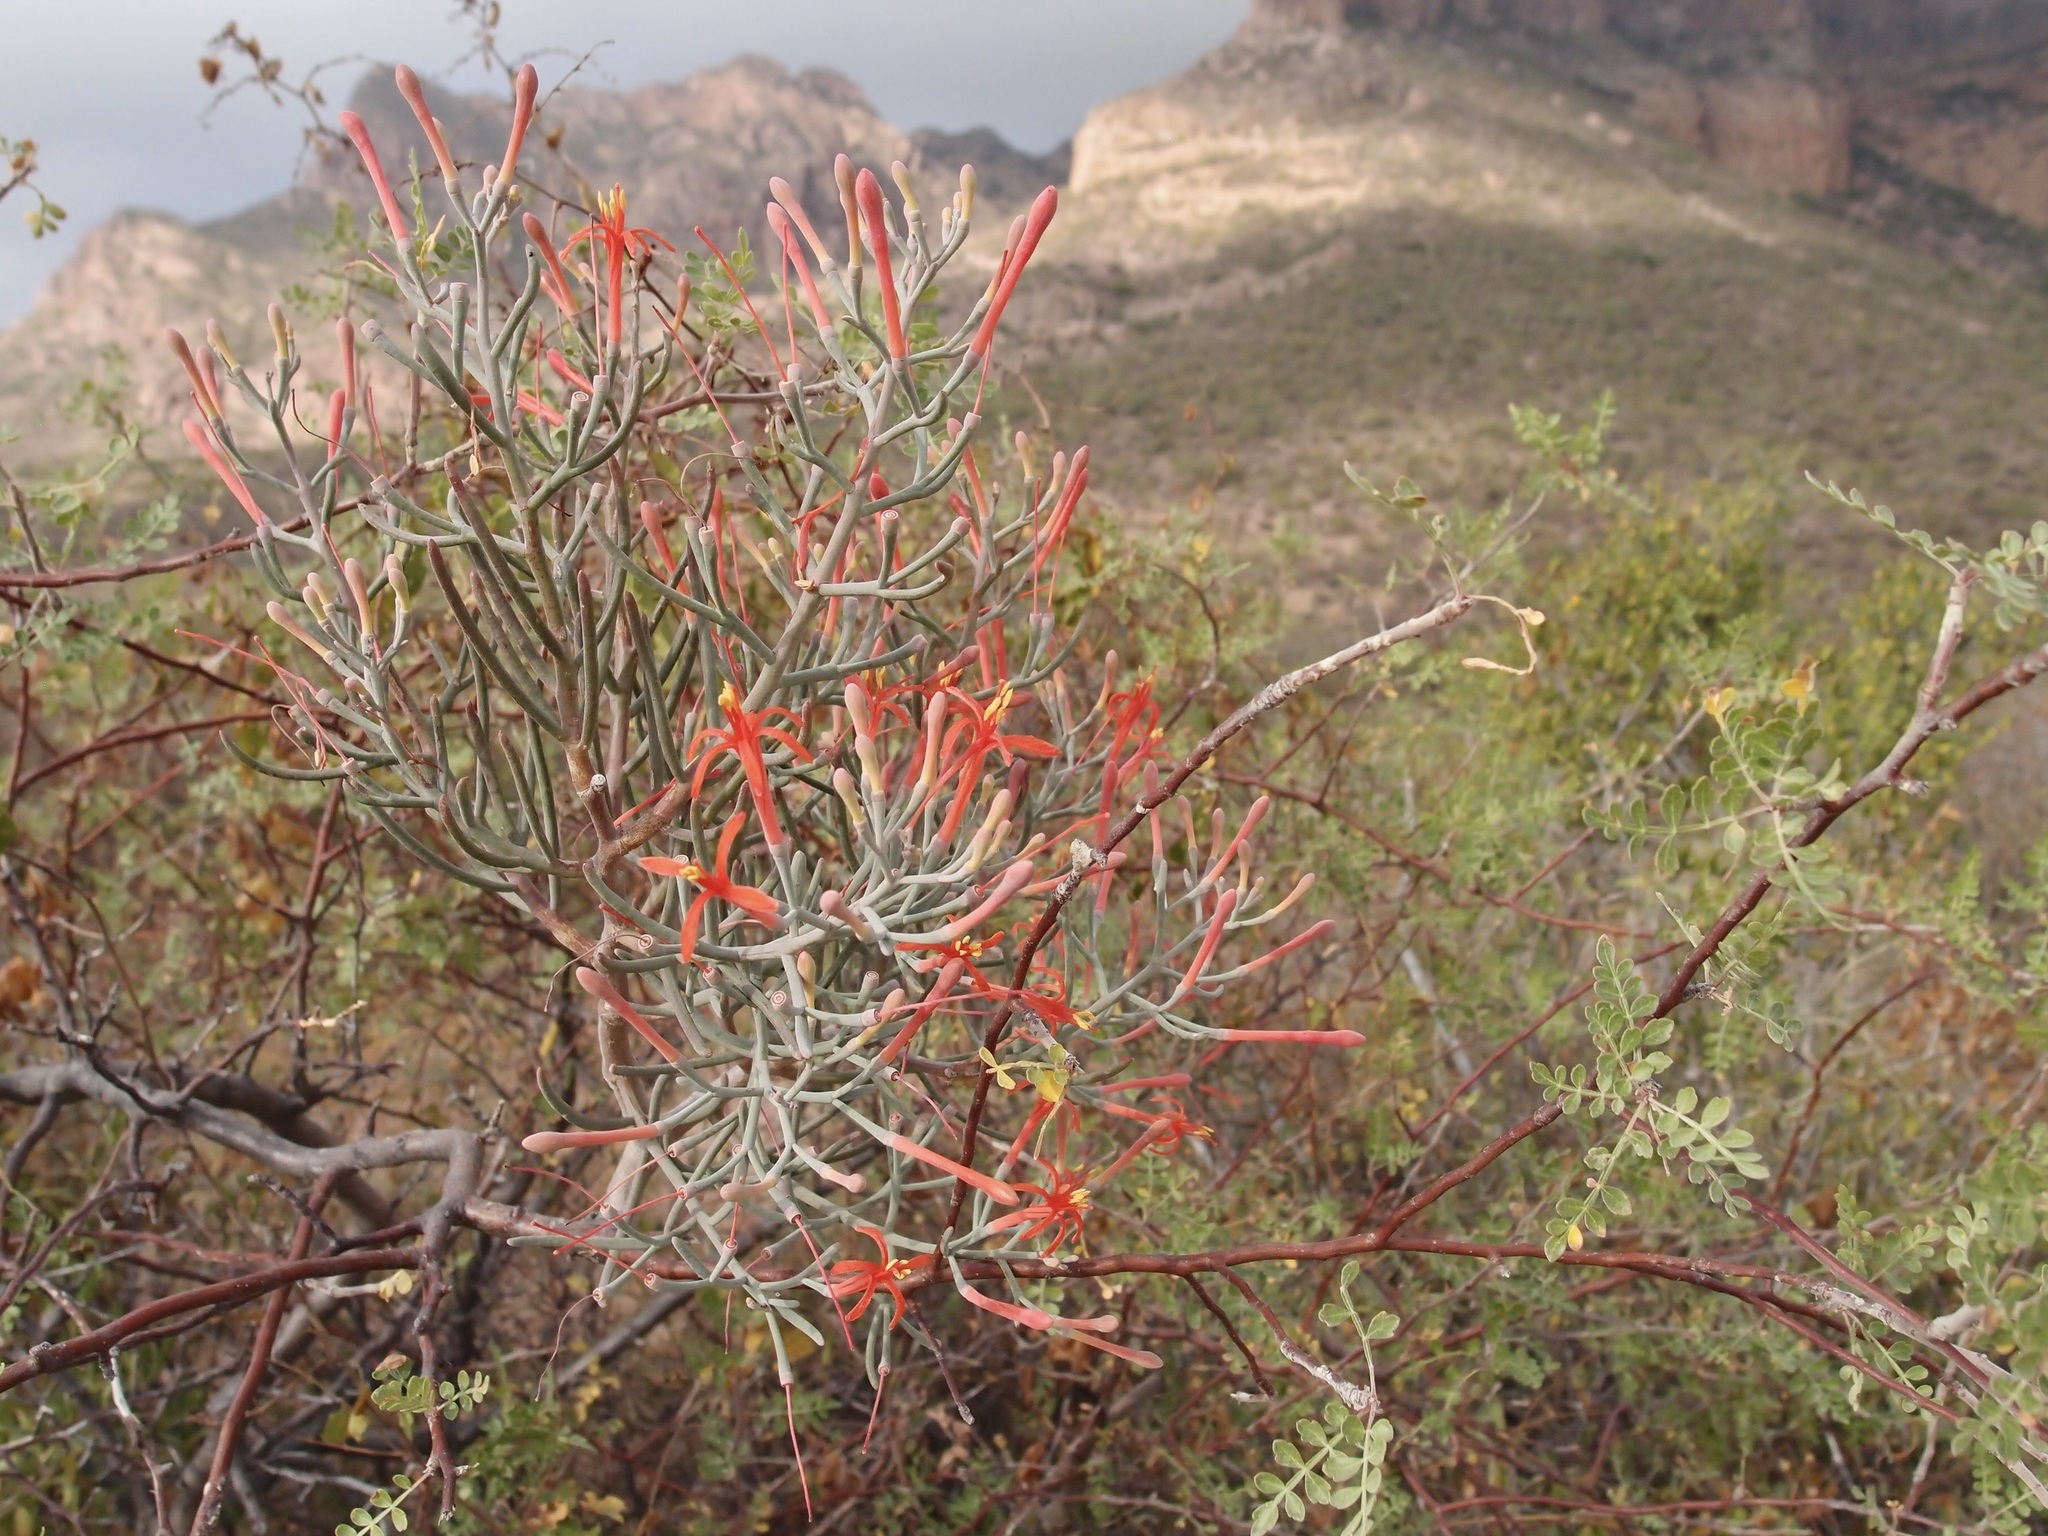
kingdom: Plantae
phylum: Tracheophyta
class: Magnoliopsida
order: Santalales
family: Loranthaceae
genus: Psittacanthus
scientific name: Psittacanthus sonorae
